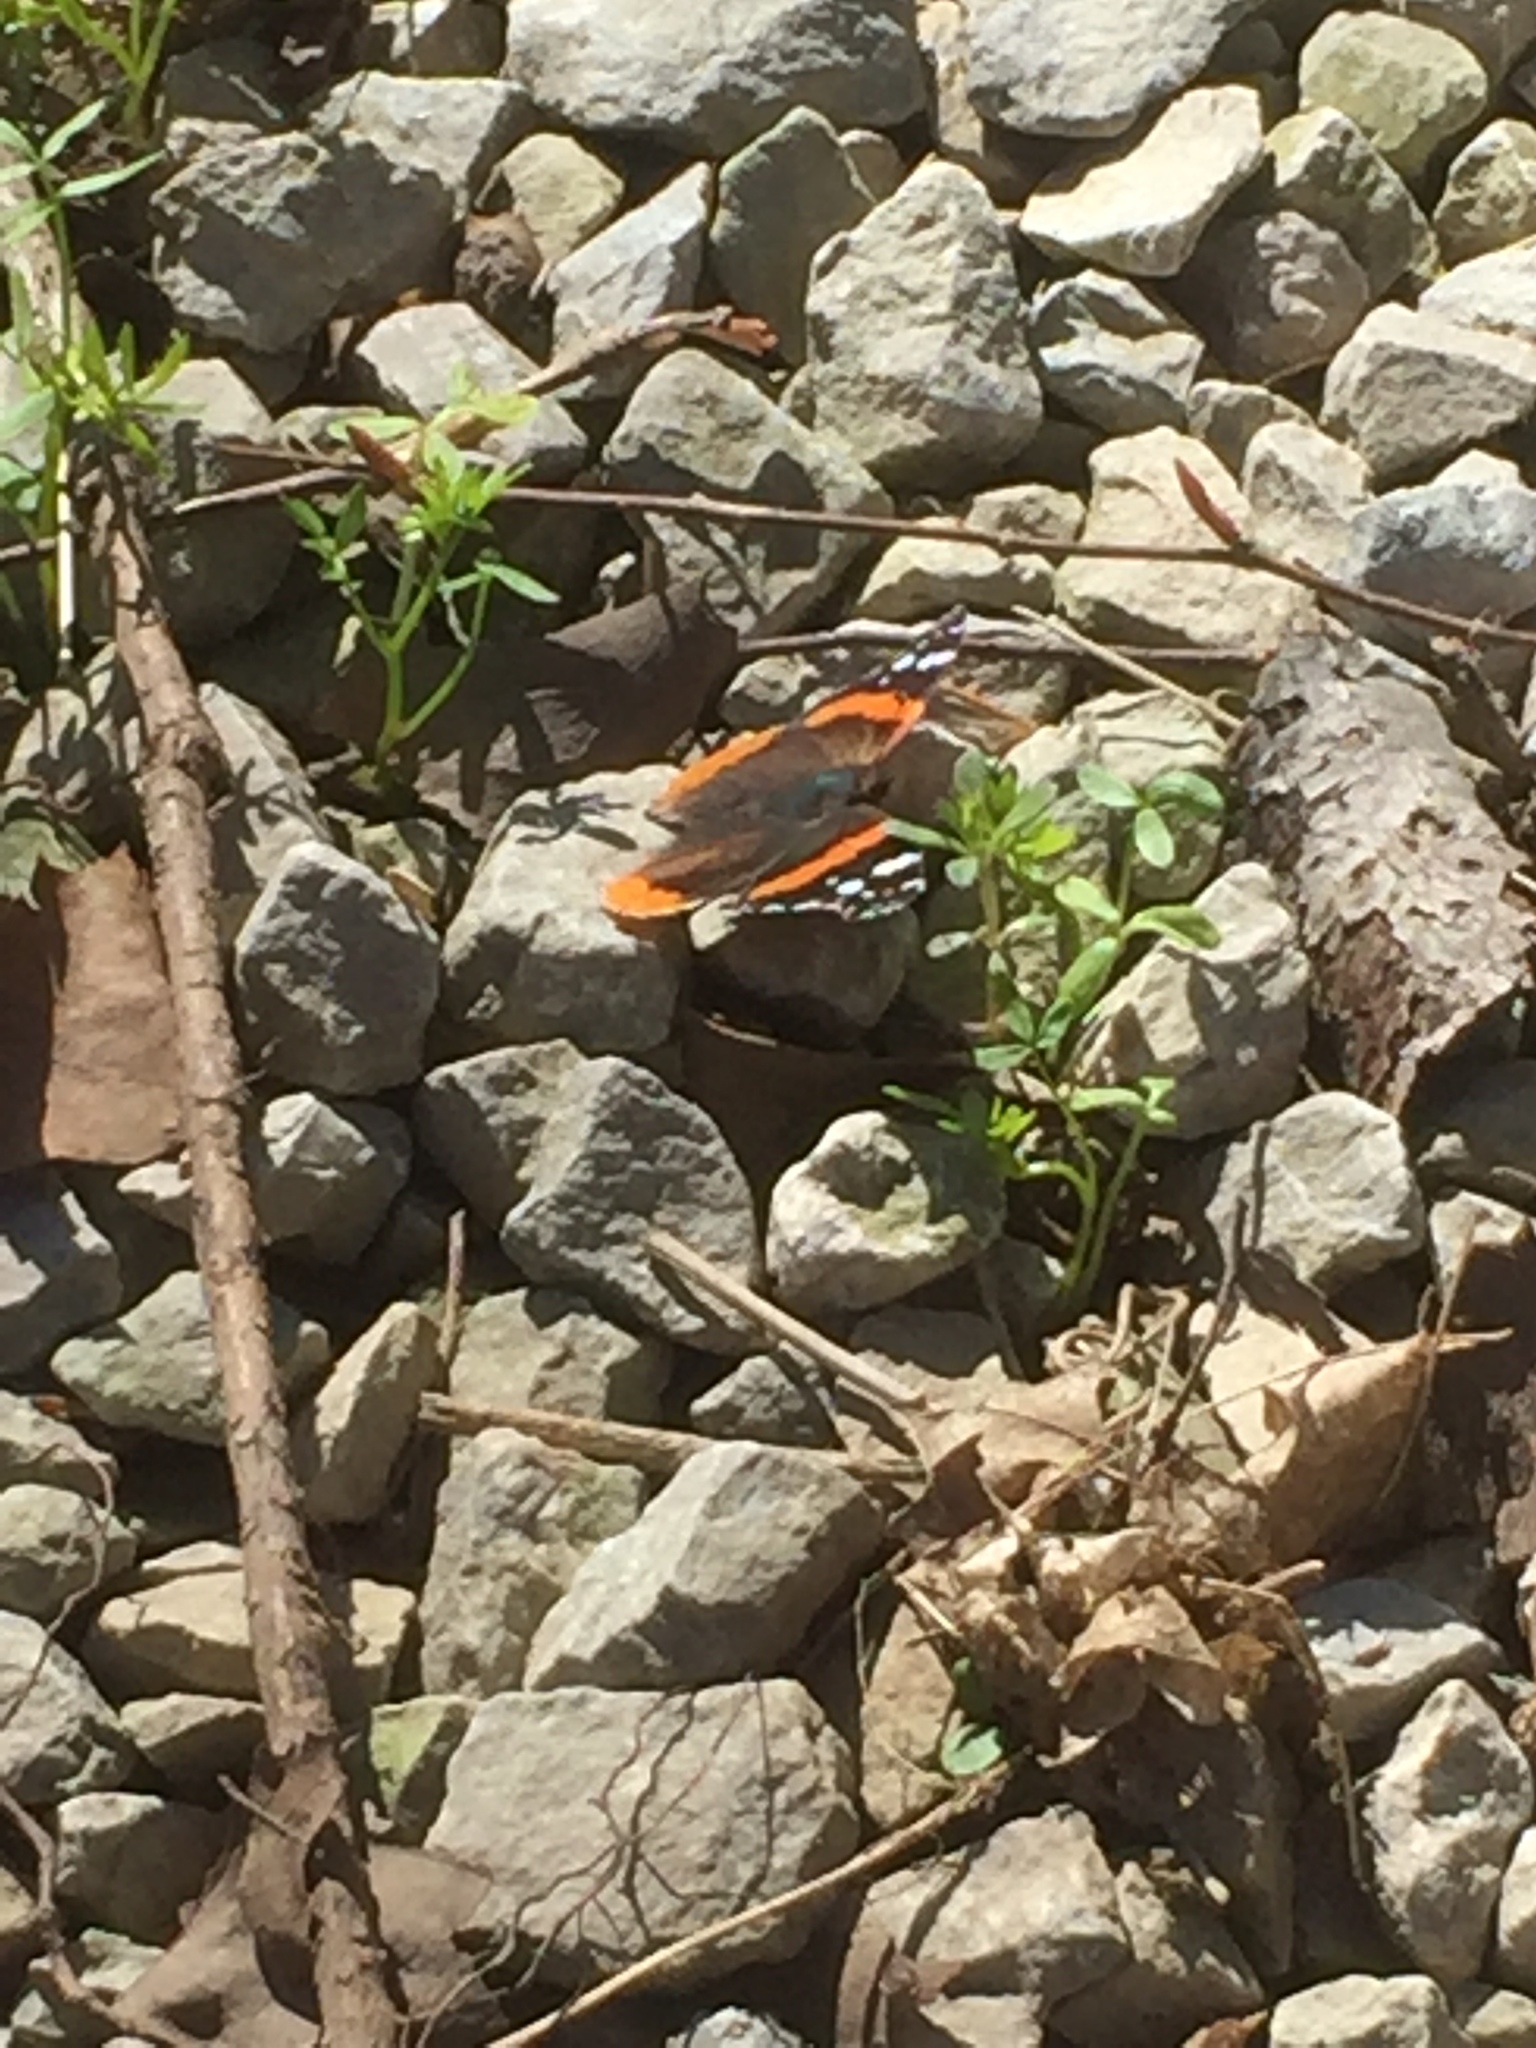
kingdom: Animalia
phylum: Arthropoda
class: Insecta
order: Lepidoptera
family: Nymphalidae
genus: Vanessa
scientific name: Vanessa atalanta
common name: Red admiral
